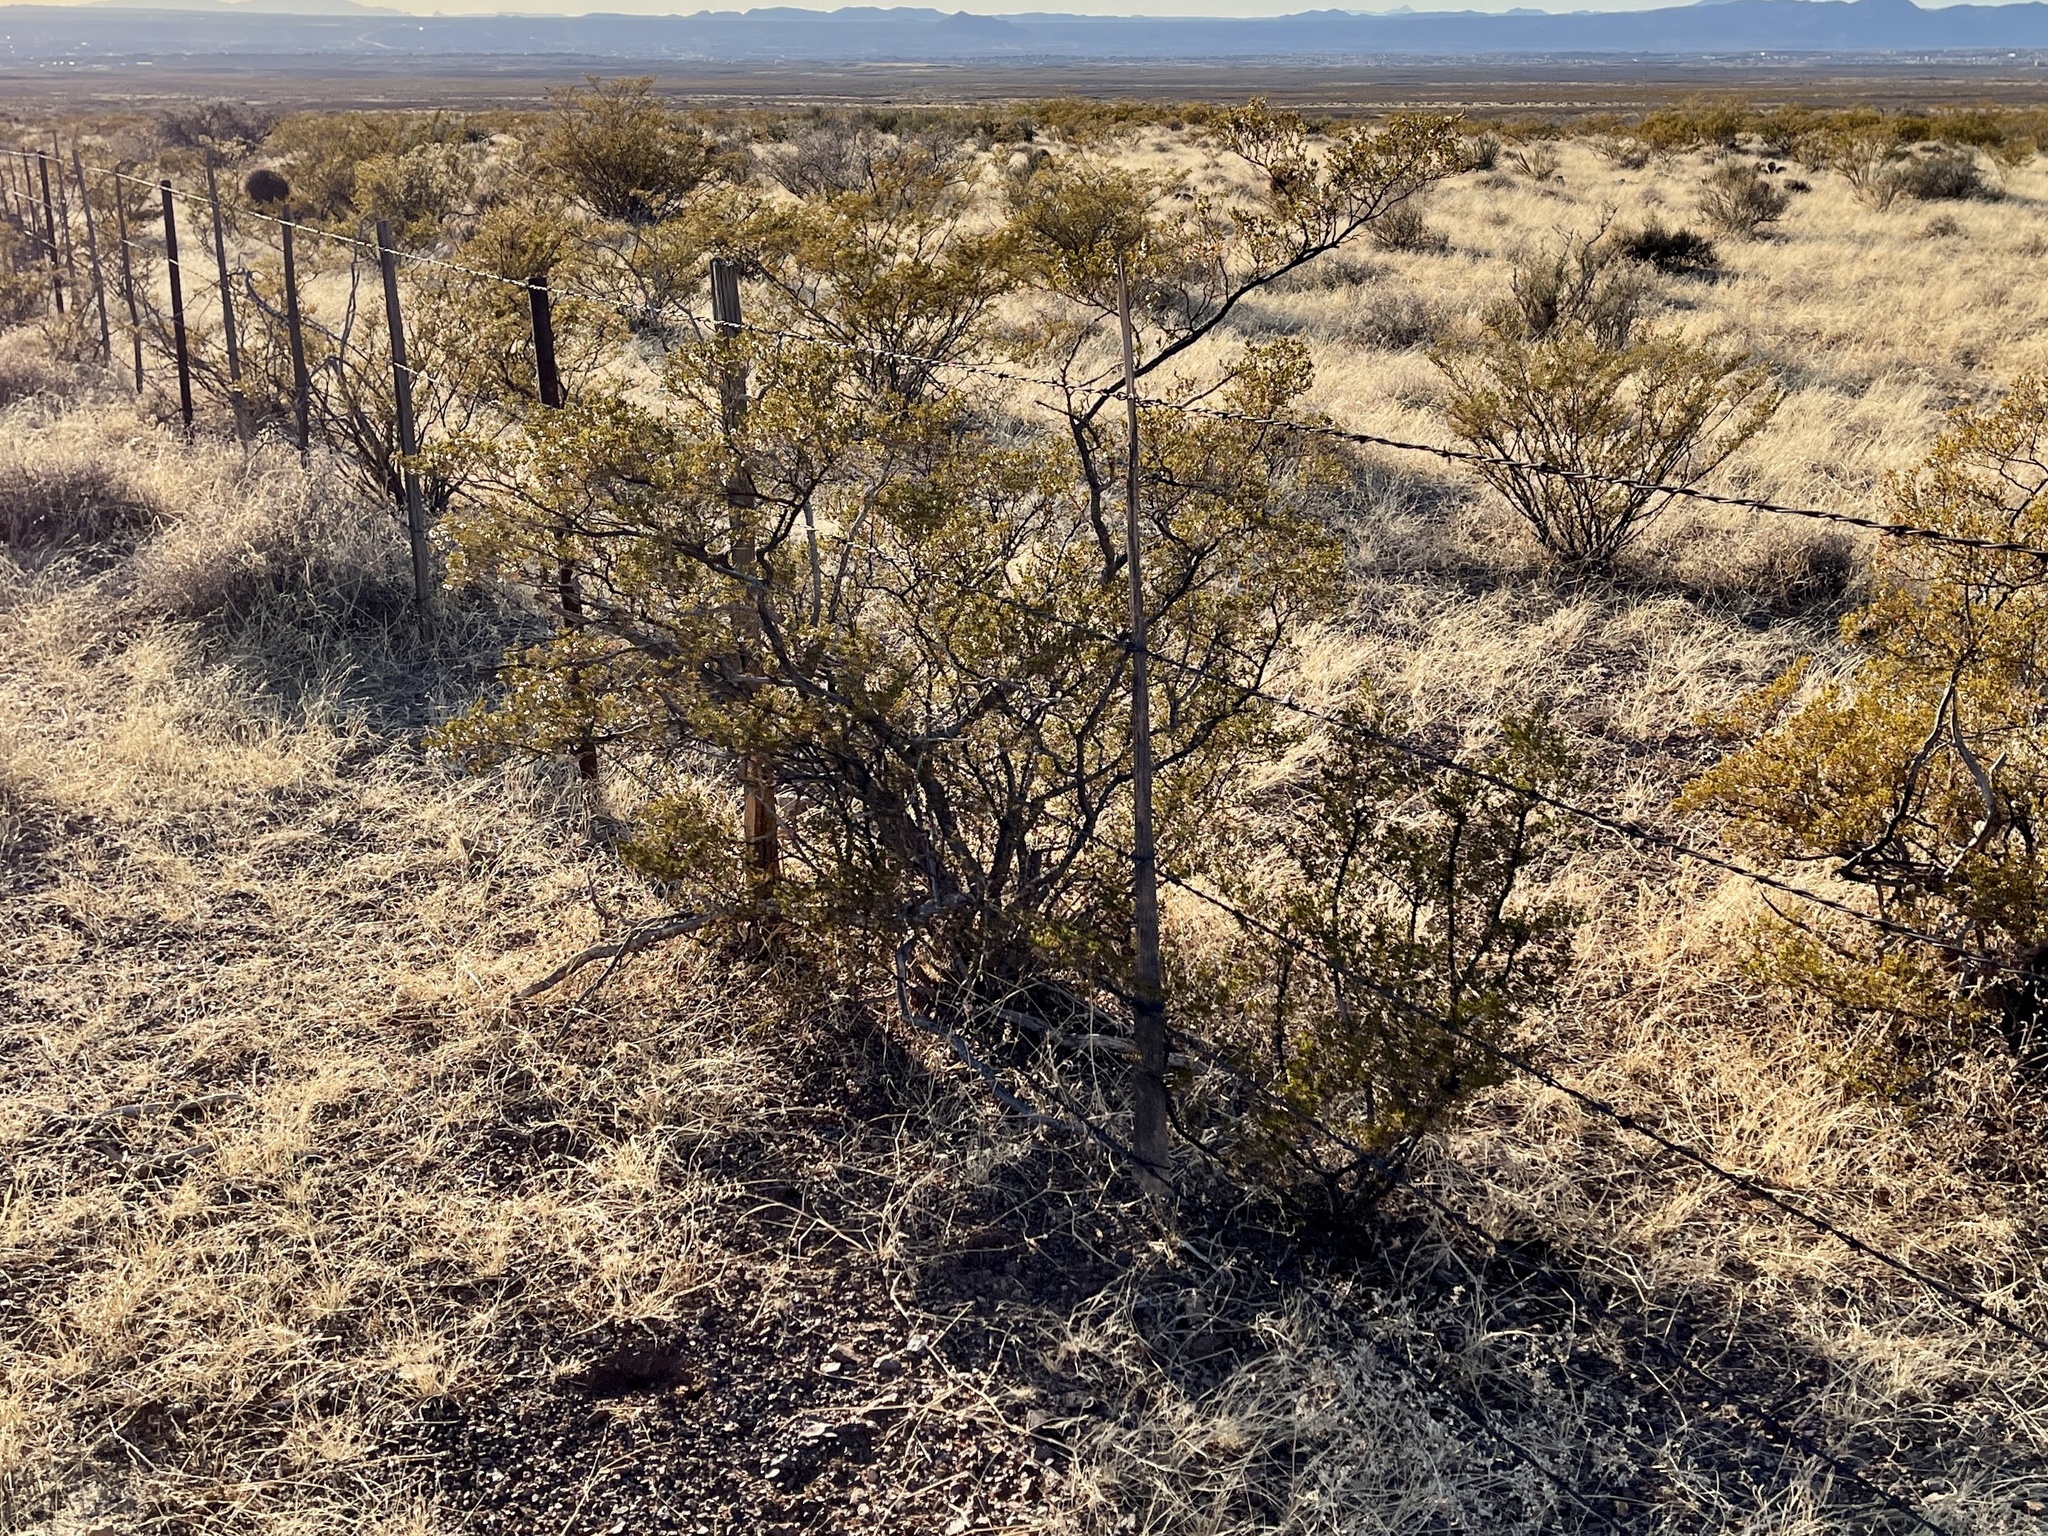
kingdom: Plantae
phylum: Tracheophyta
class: Magnoliopsida
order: Zygophyllales
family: Zygophyllaceae
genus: Larrea
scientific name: Larrea tridentata
